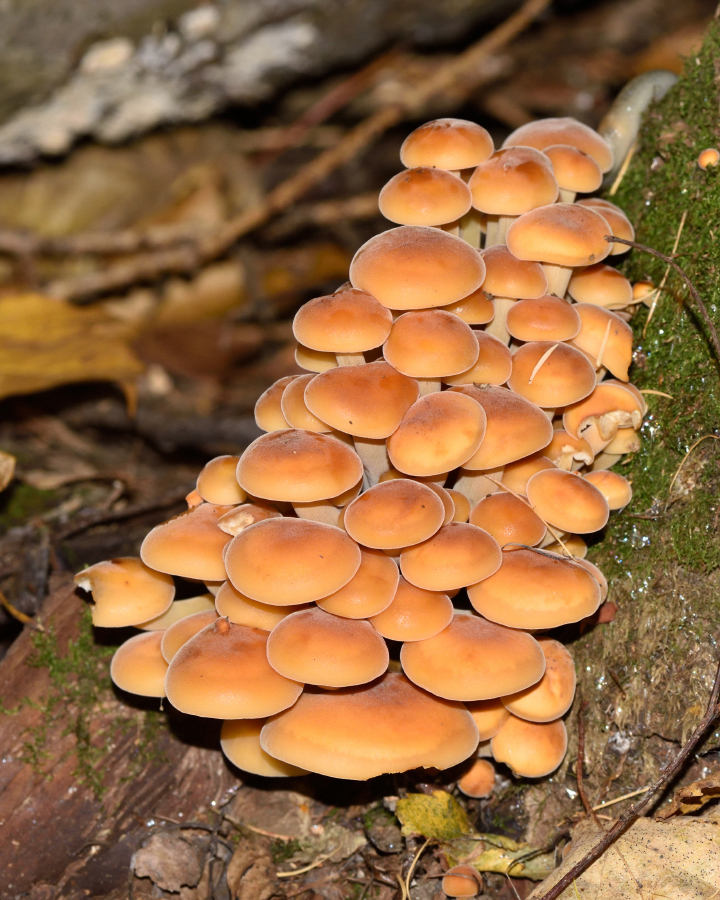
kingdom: Fungi
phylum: Basidiomycota
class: Agaricomycetes
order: Agaricales
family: Physalacriaceae
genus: Flammulina
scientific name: Flammulina
